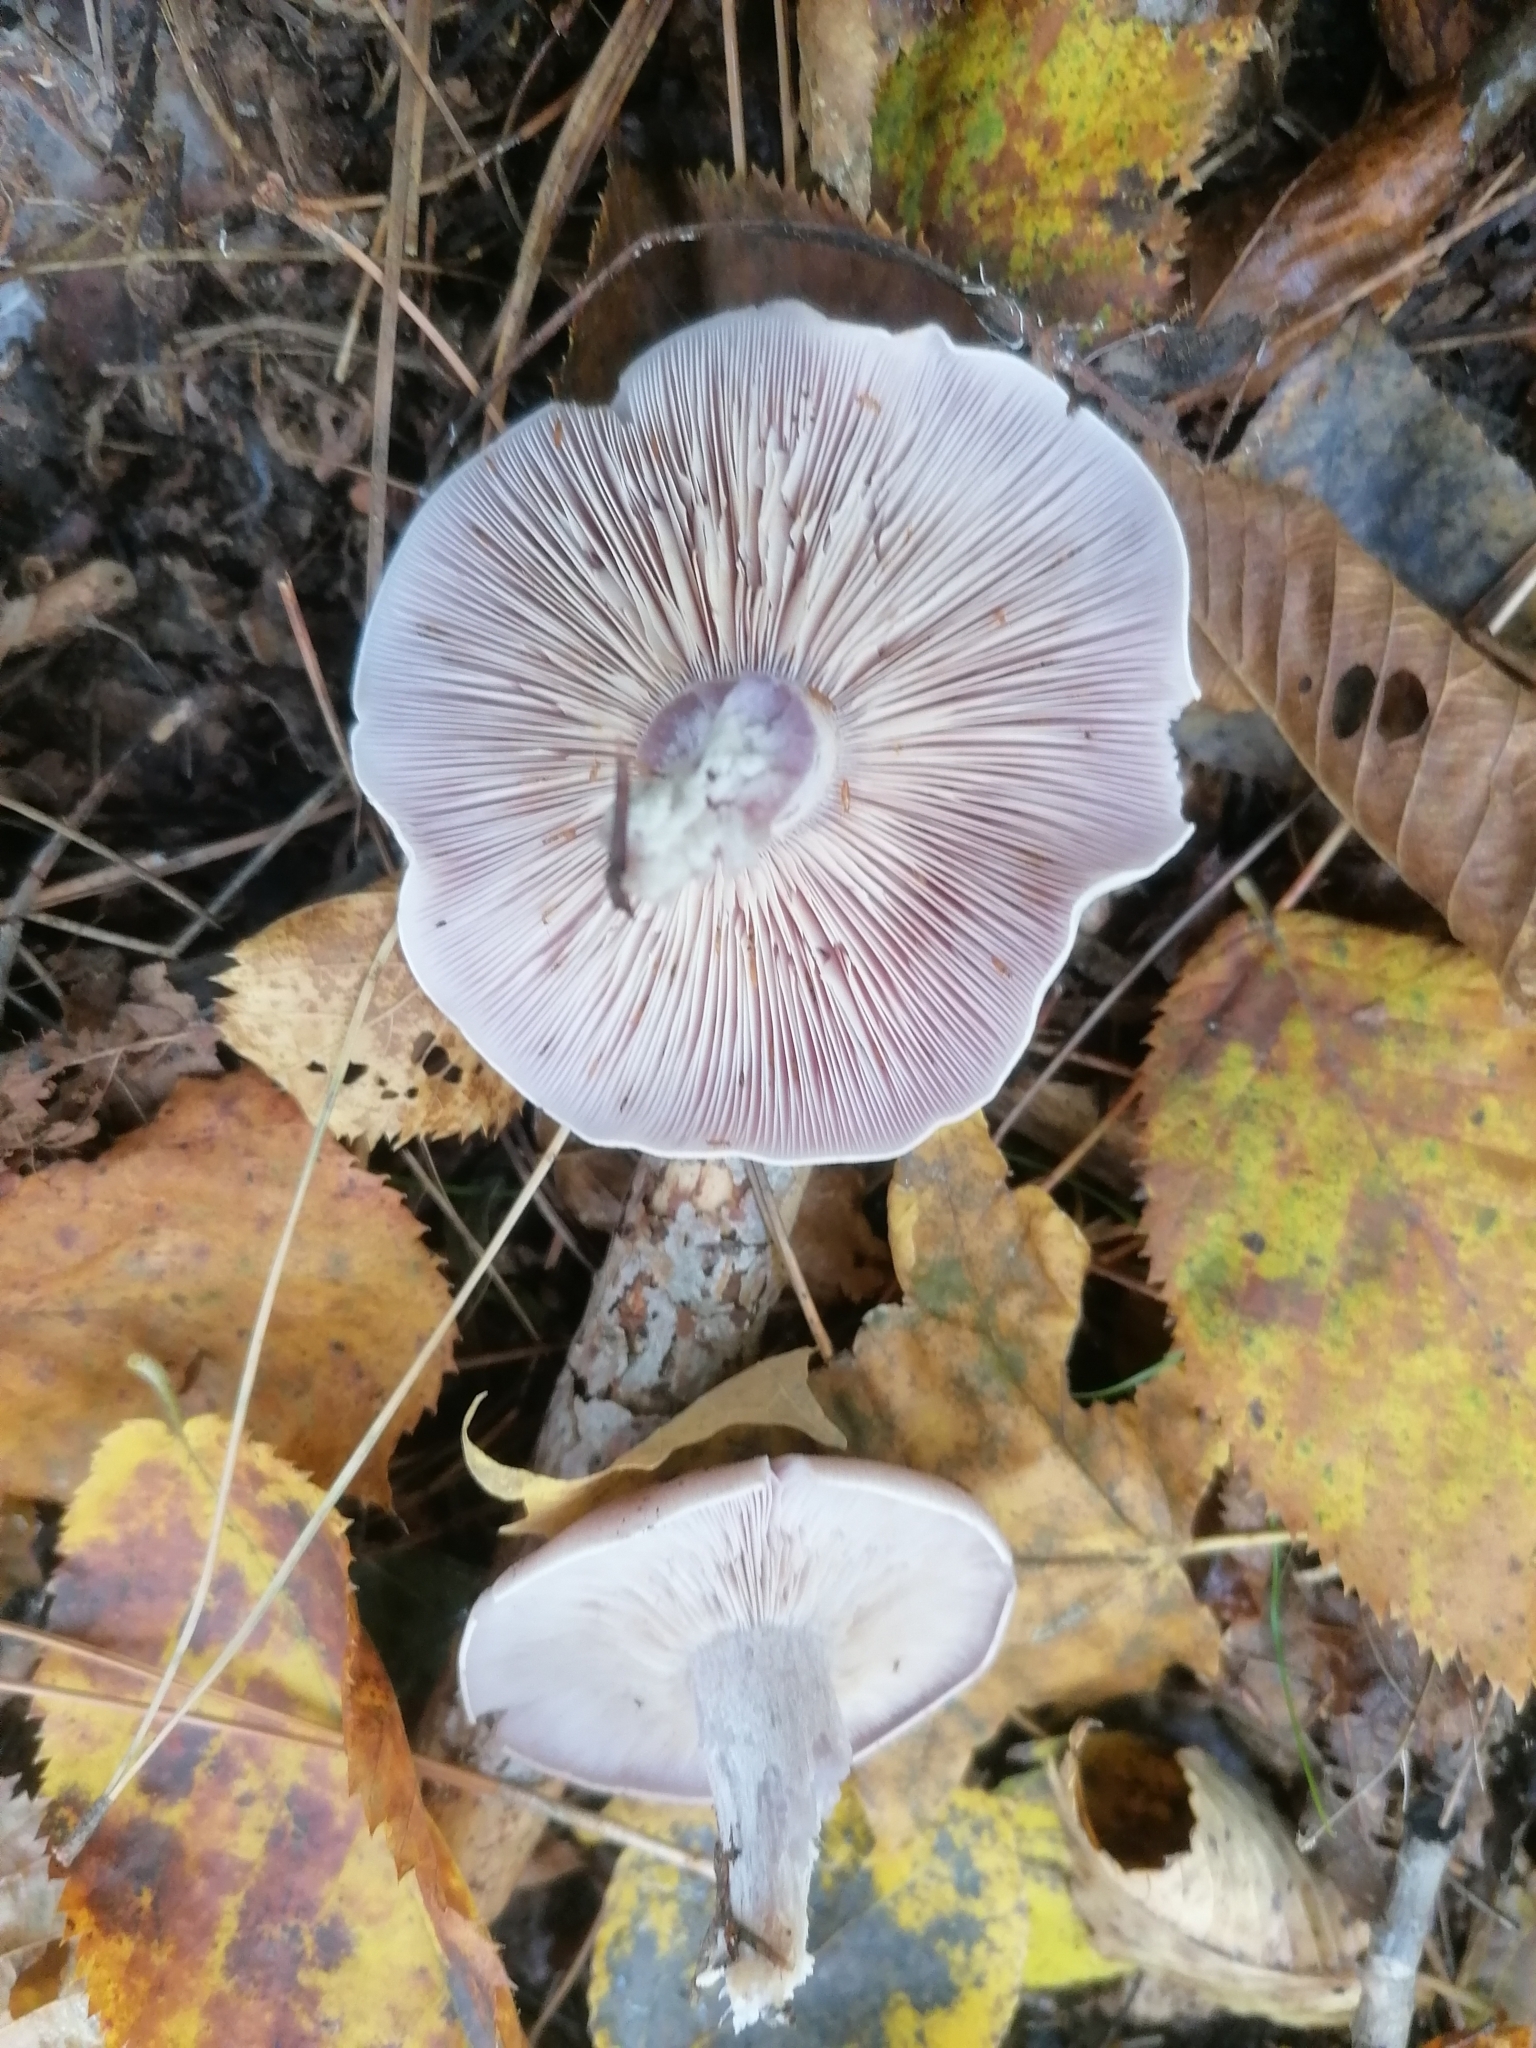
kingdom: Fungi
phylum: Basidiomycota
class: Agaricomycetes
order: Agaricales
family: Tricholomataceae
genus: Collybia
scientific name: Collybia
